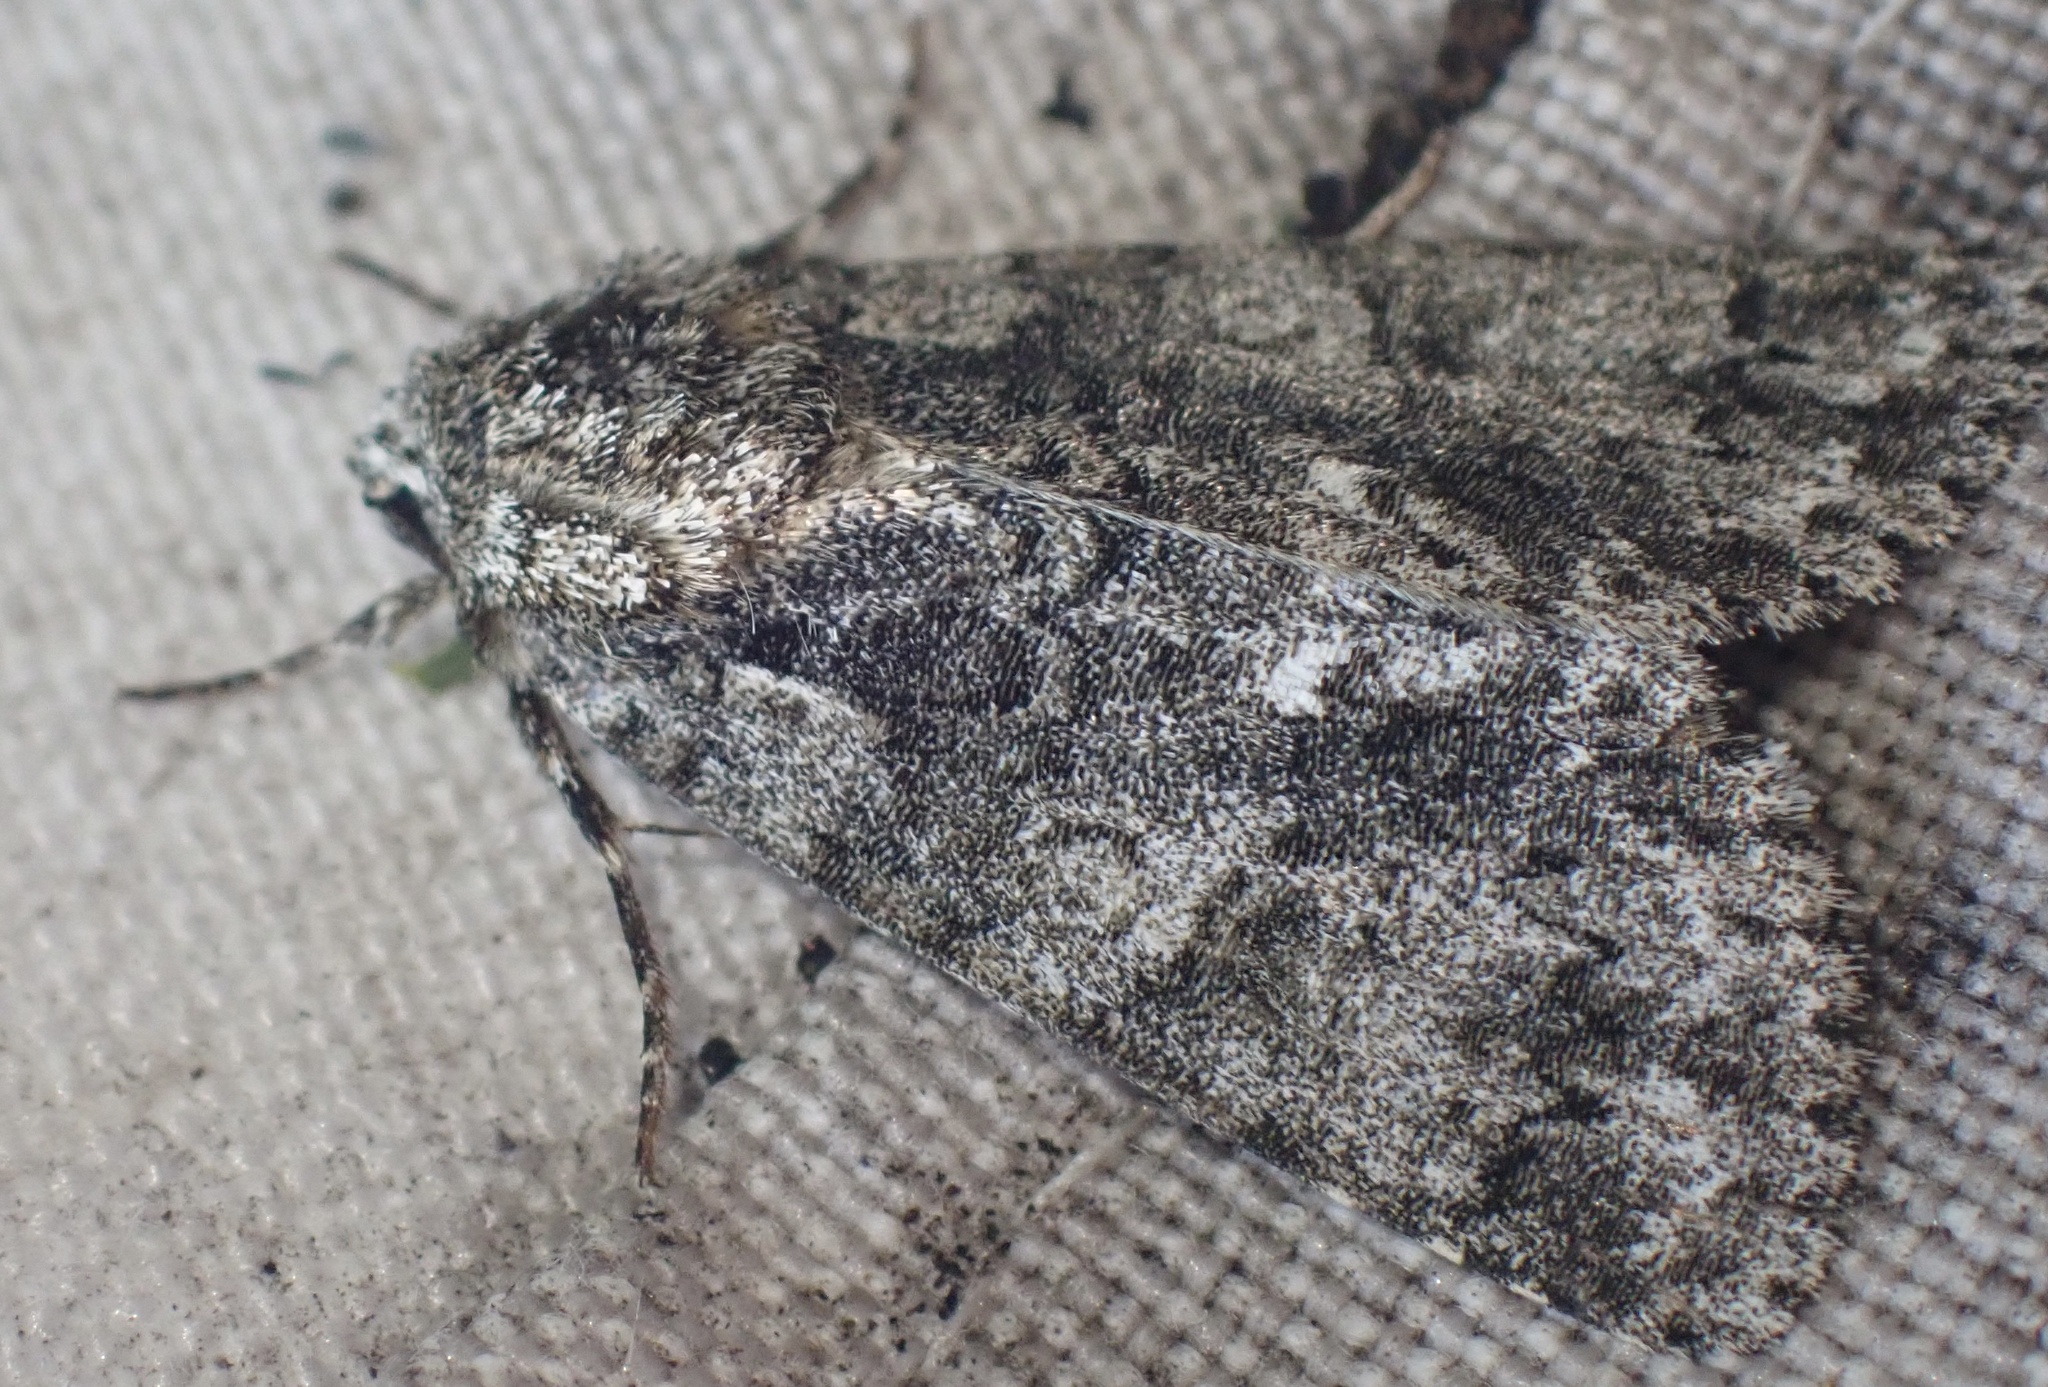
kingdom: Animalia
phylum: Arthropoda
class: Insecta
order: Lepidoptera
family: Noctuidae
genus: Acronicta
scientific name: Acronicta rumicis
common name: Knot grass
